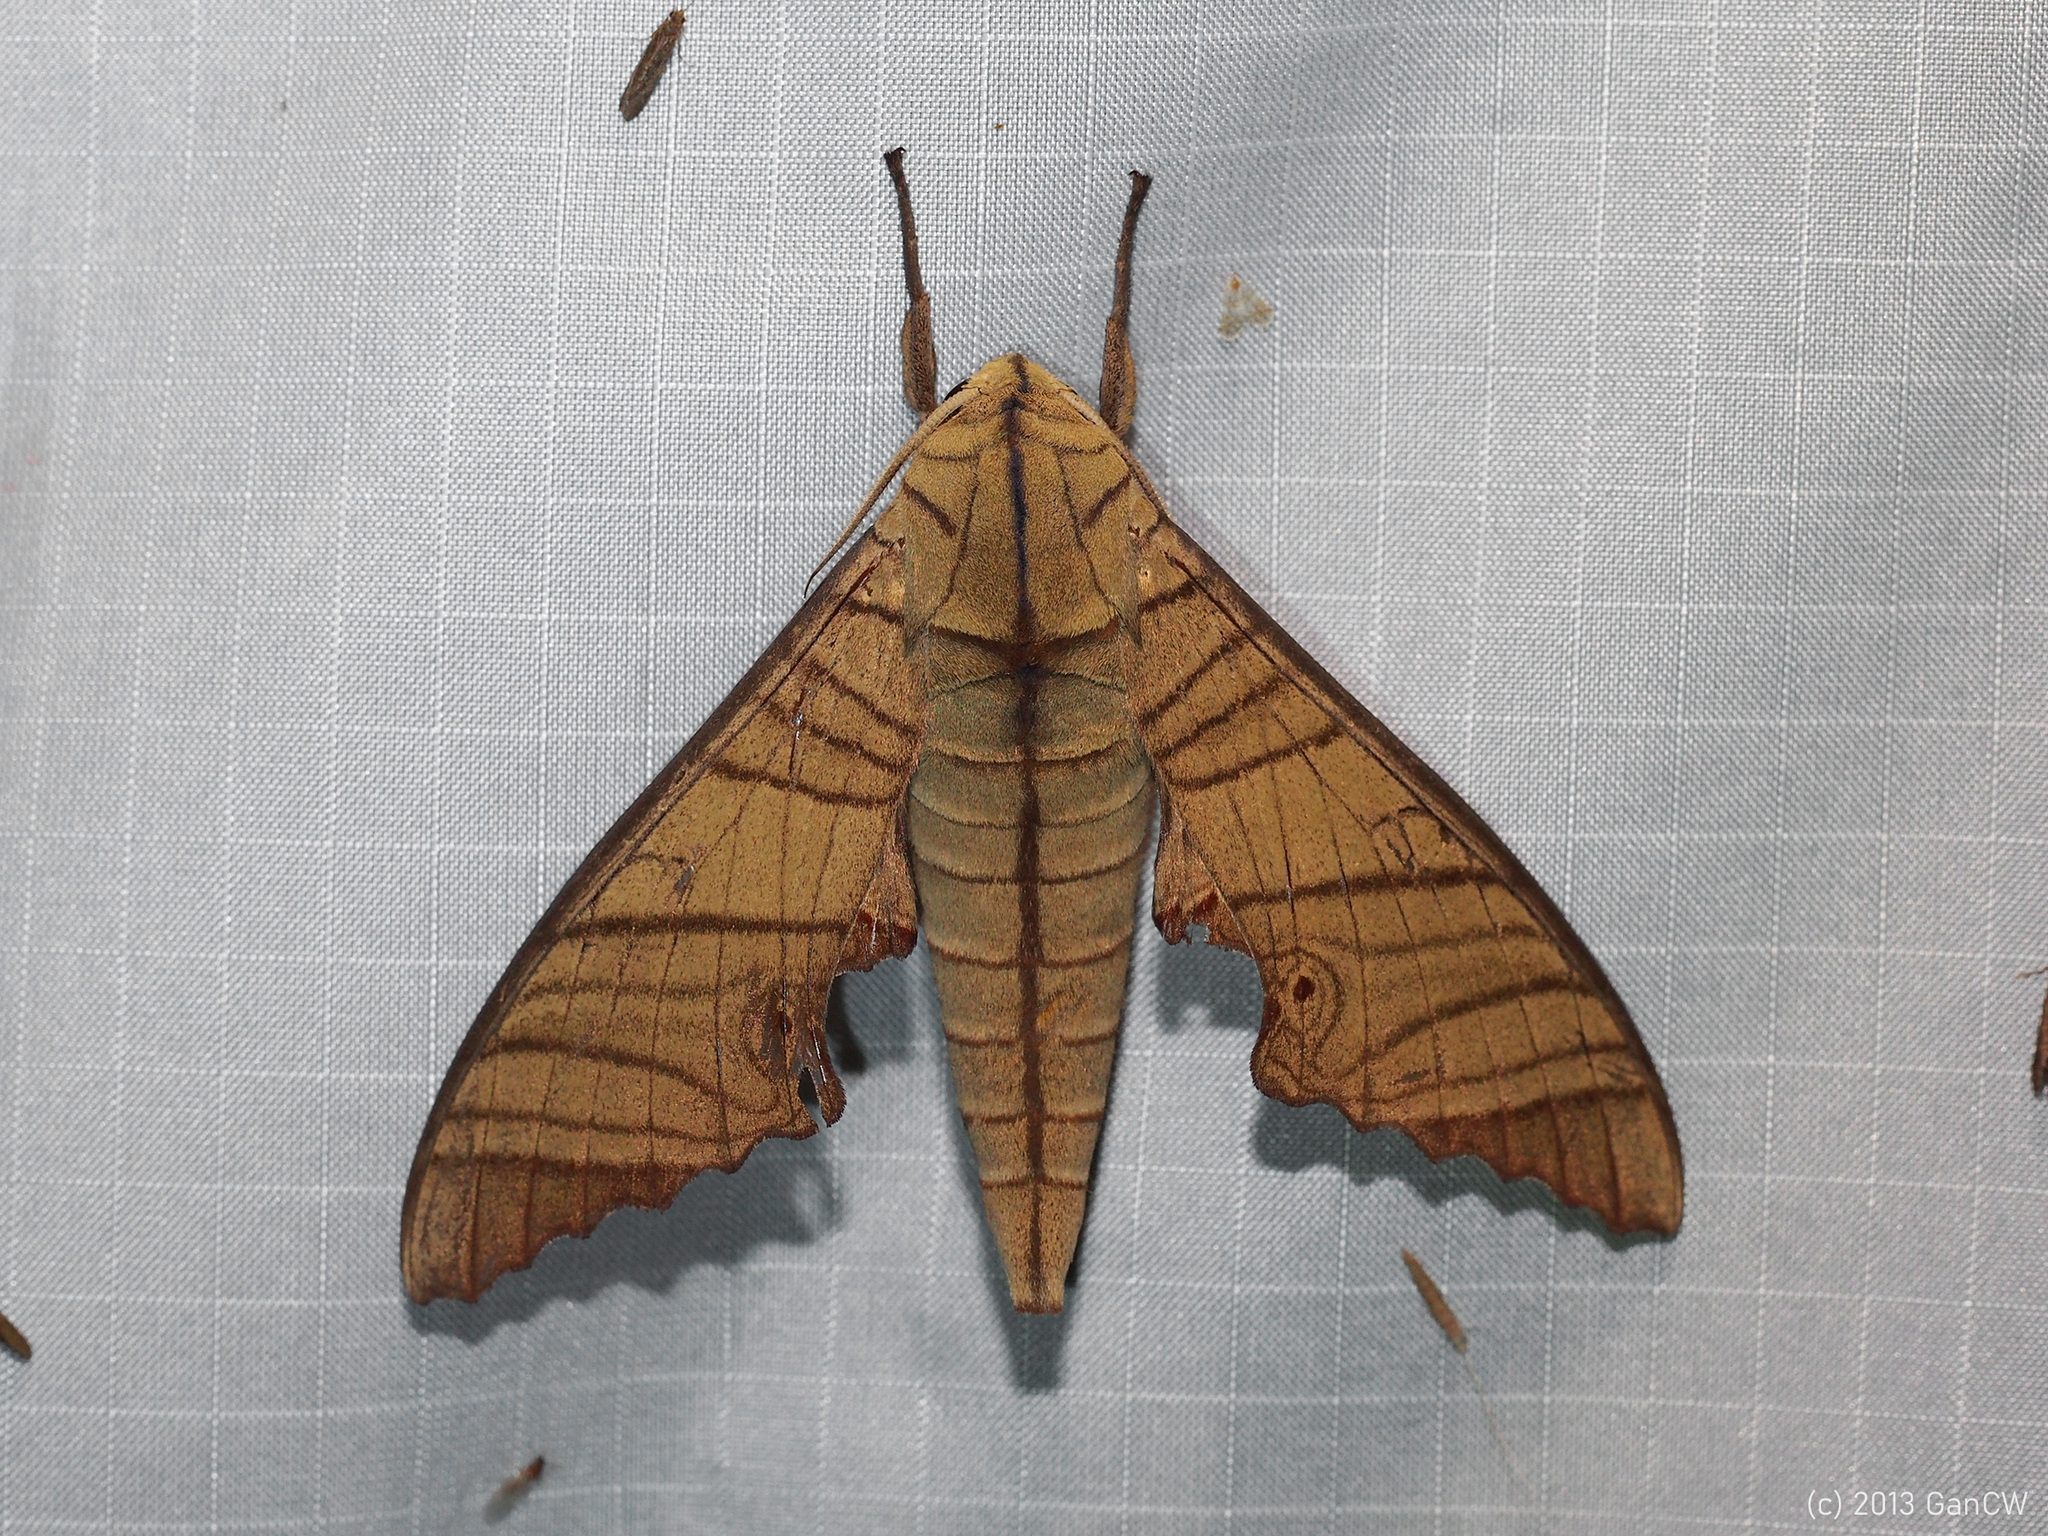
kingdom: Animalia
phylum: Arthropoda
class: Insecta
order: Lepidoptera
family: Sphingidae
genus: Marumba
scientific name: Marumba tigrina
